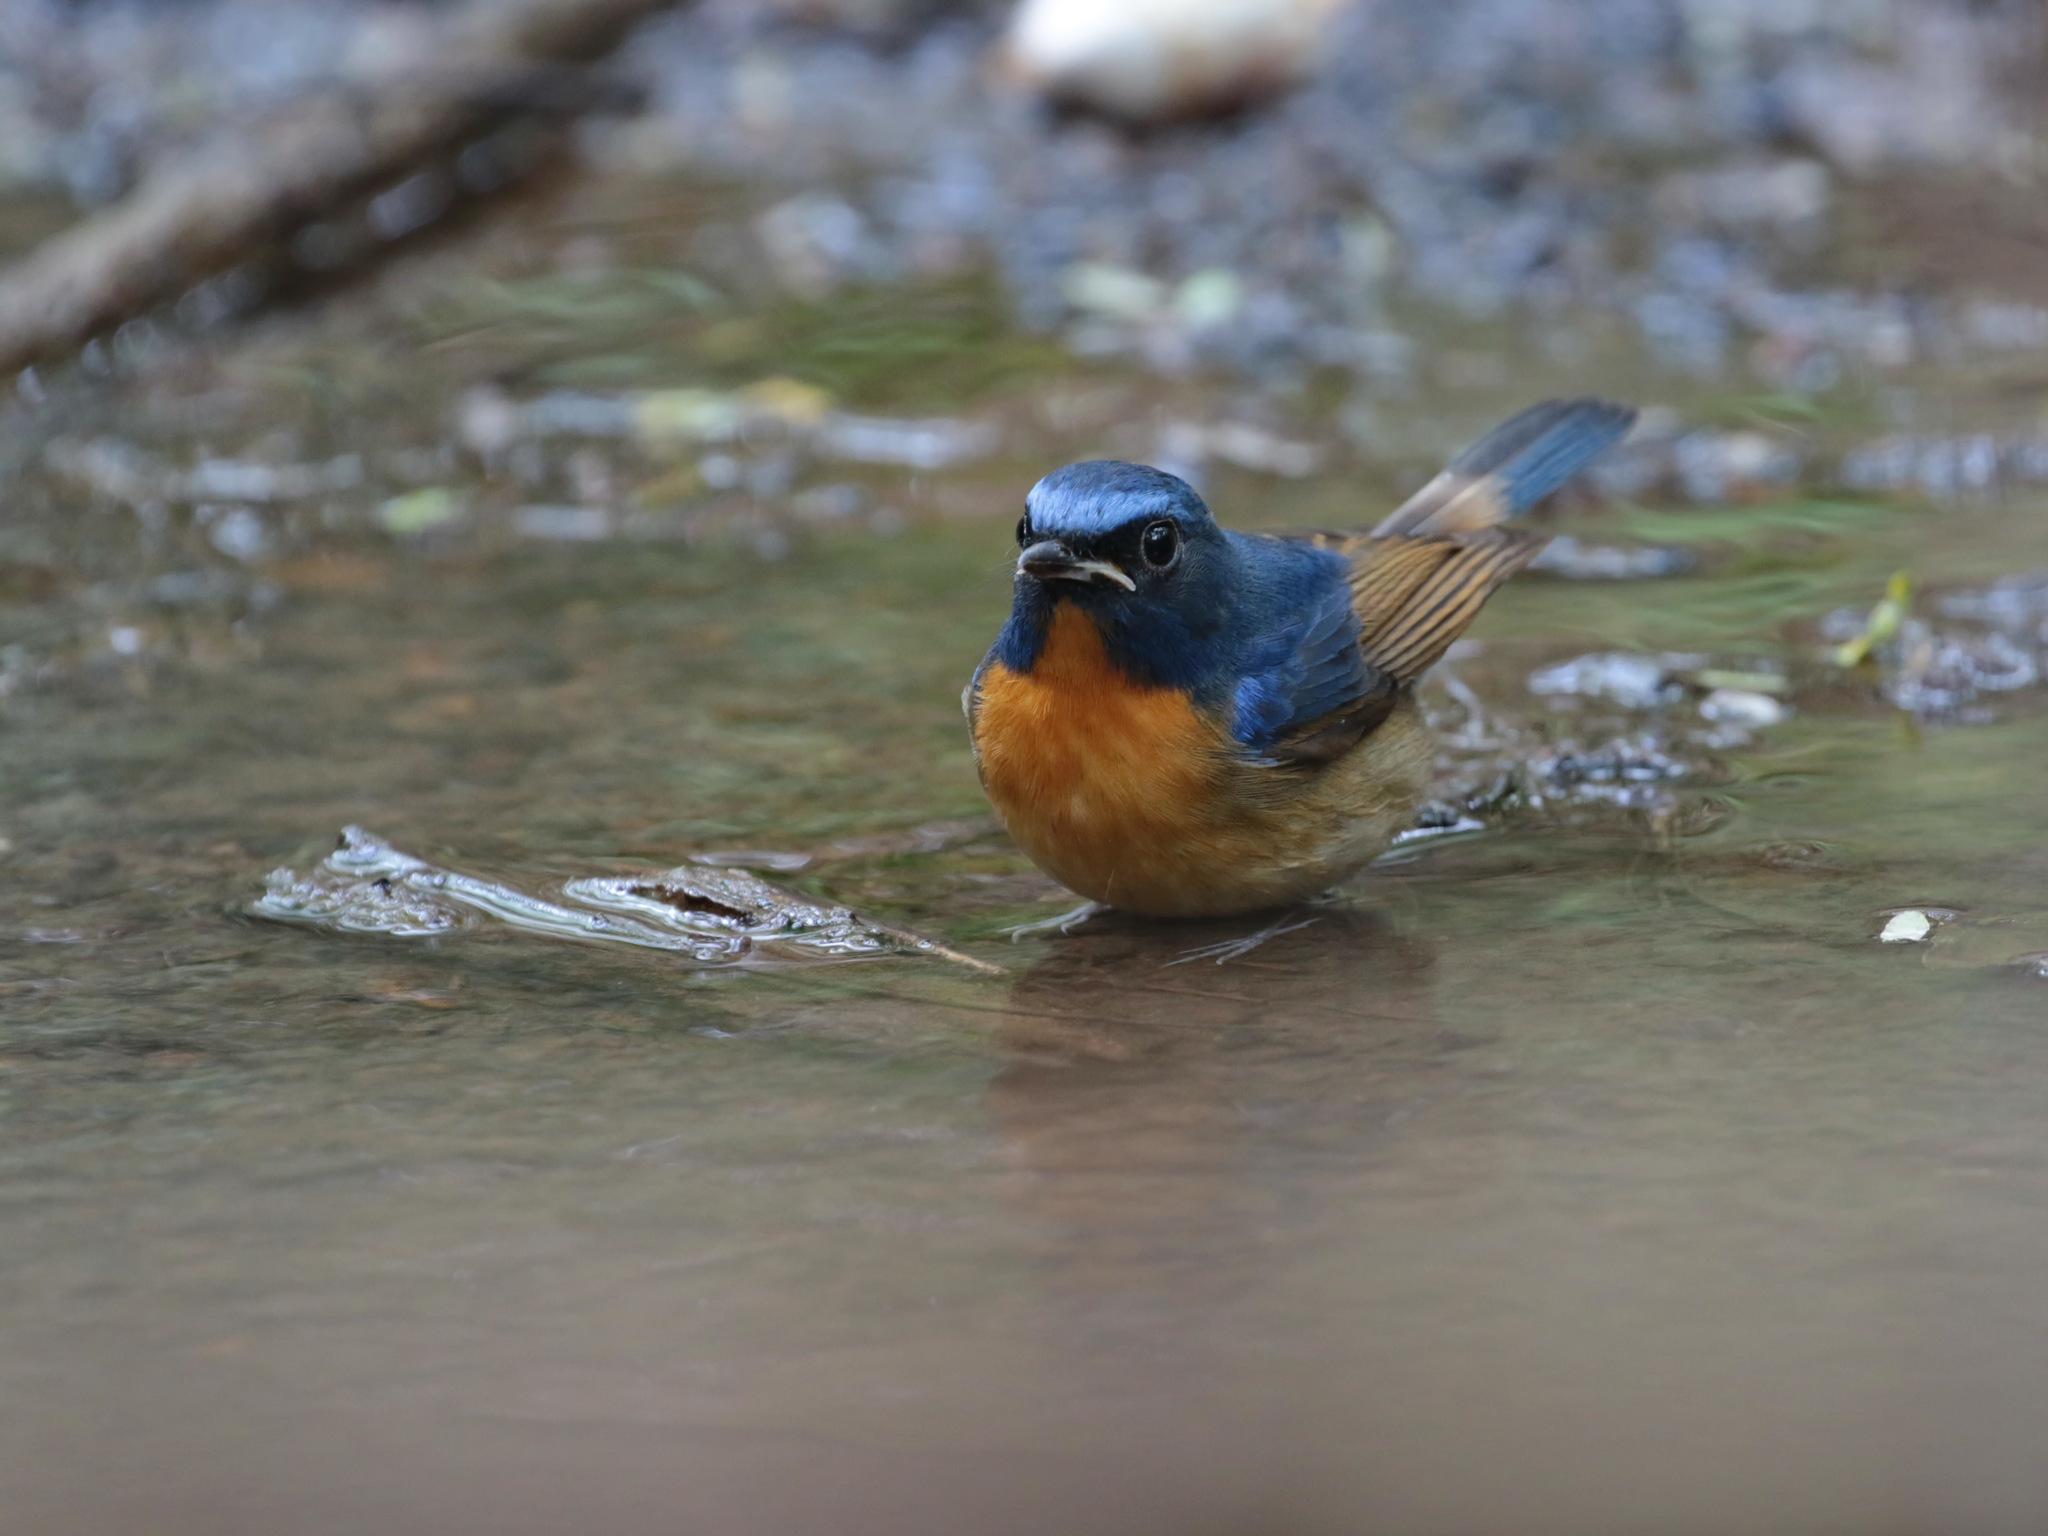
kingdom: Animalia
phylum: Chordata
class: Aves
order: Passeriformes
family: Muscicapidae
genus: Cyornis
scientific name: Cyornis glaucicomans
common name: Chinese blue flycatcher
